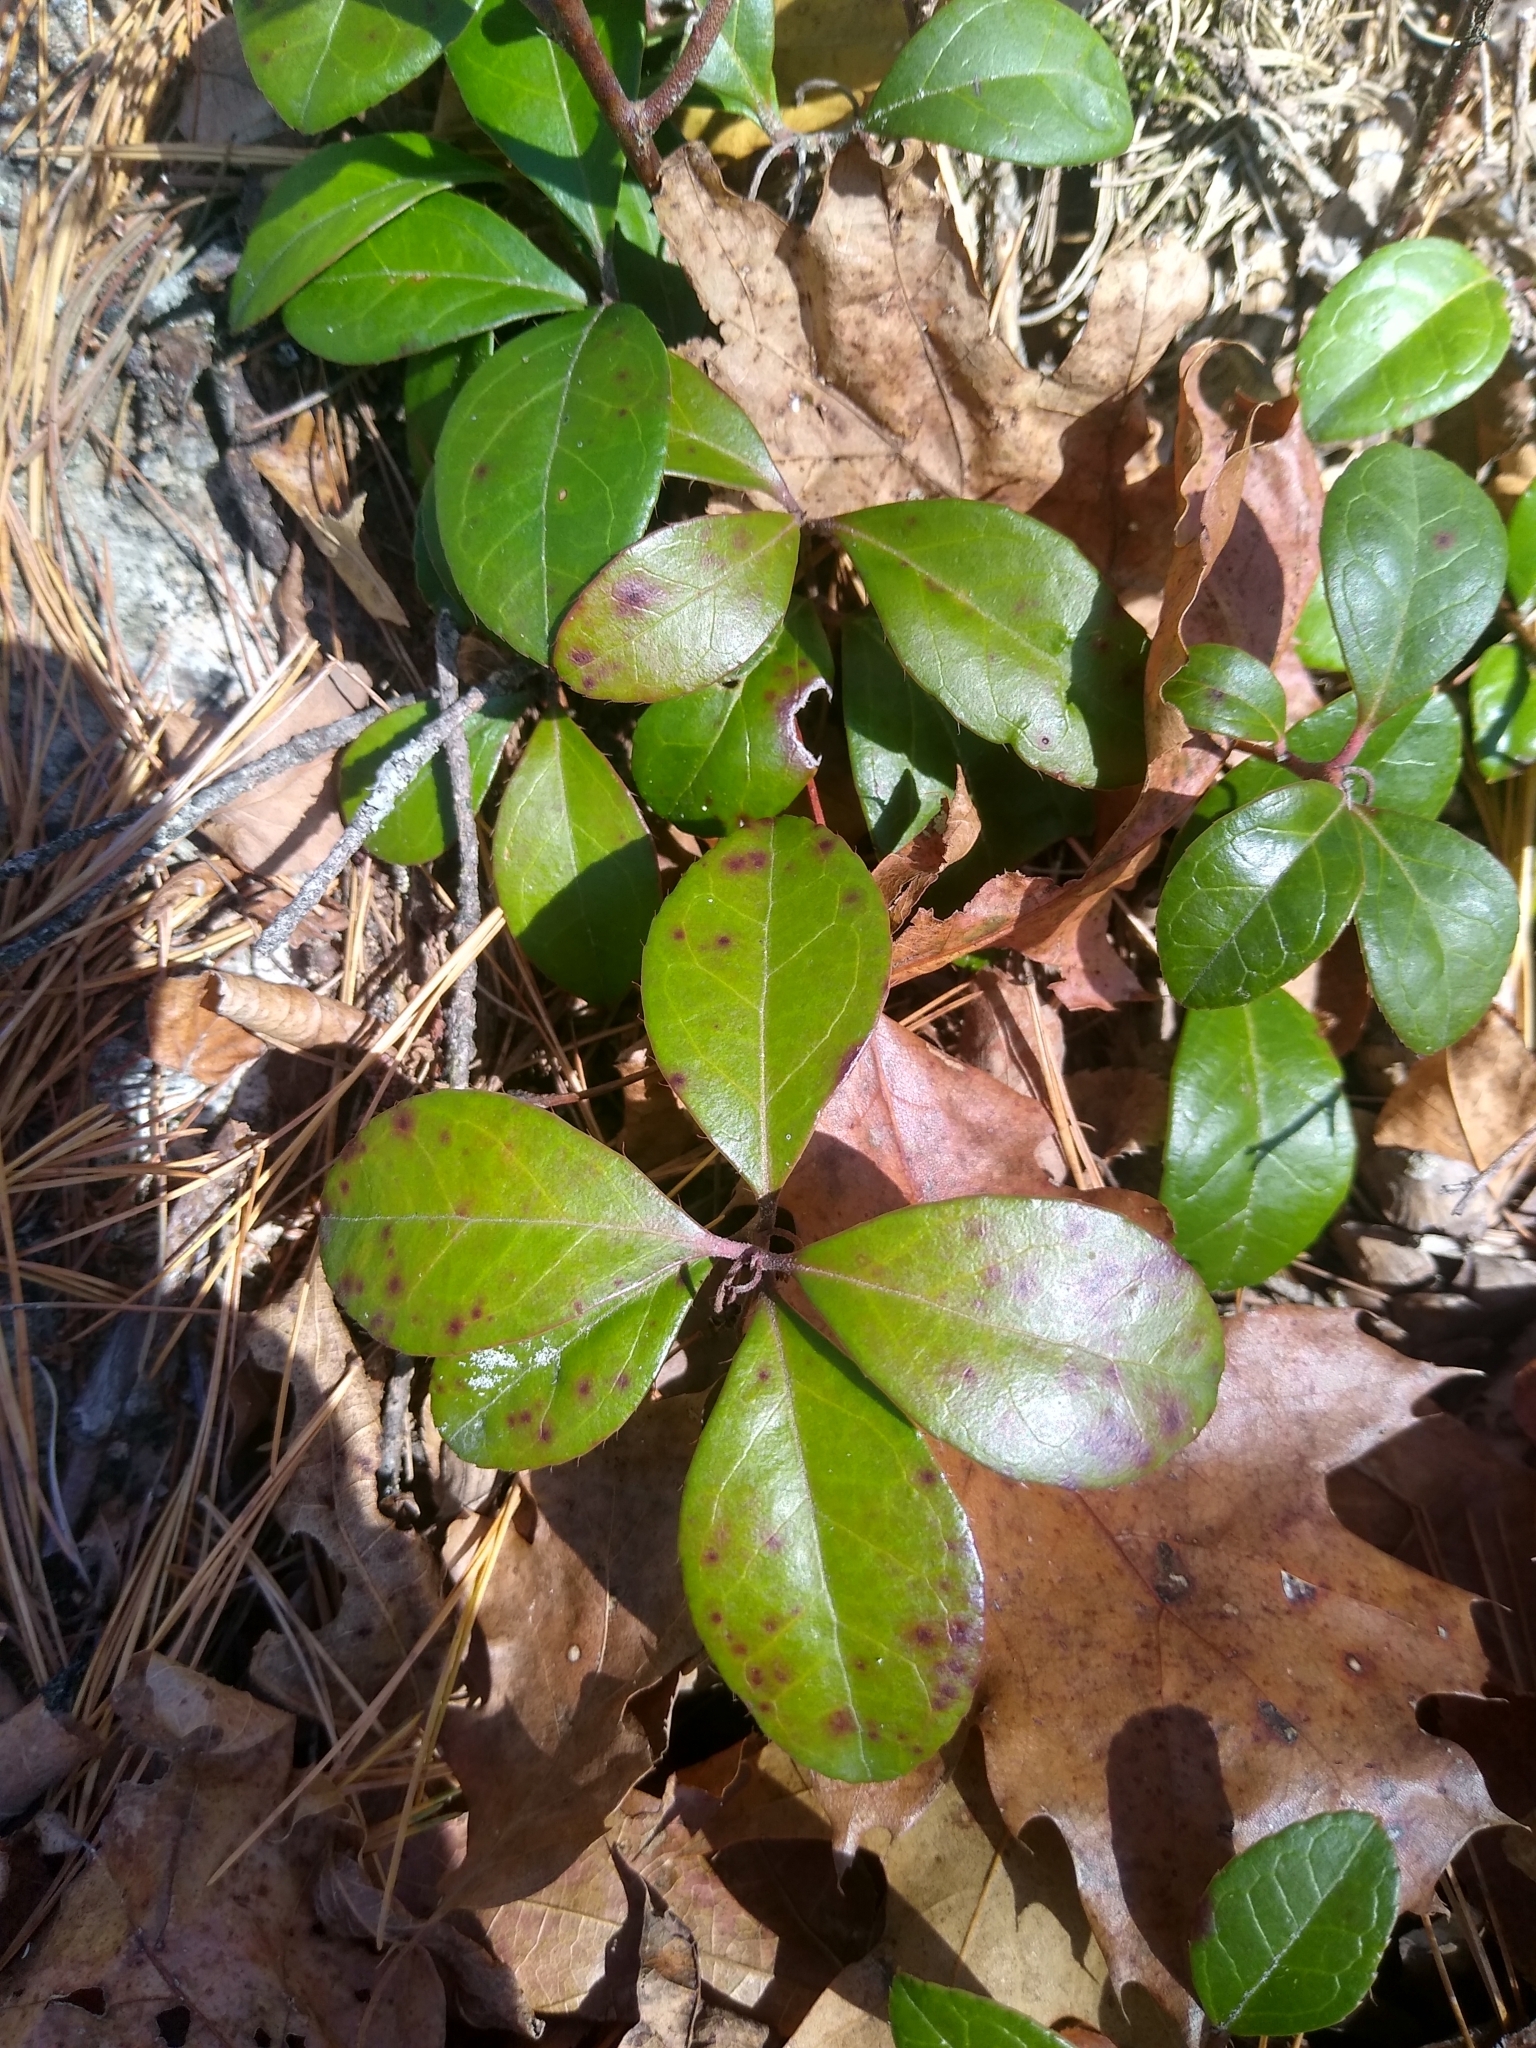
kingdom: Plantae
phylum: Tracheophyta
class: Magnoliopsida
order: Ericales
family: Ericaceae
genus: Gaultheria
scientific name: Gaultheria procumbens
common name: Checkerberry
